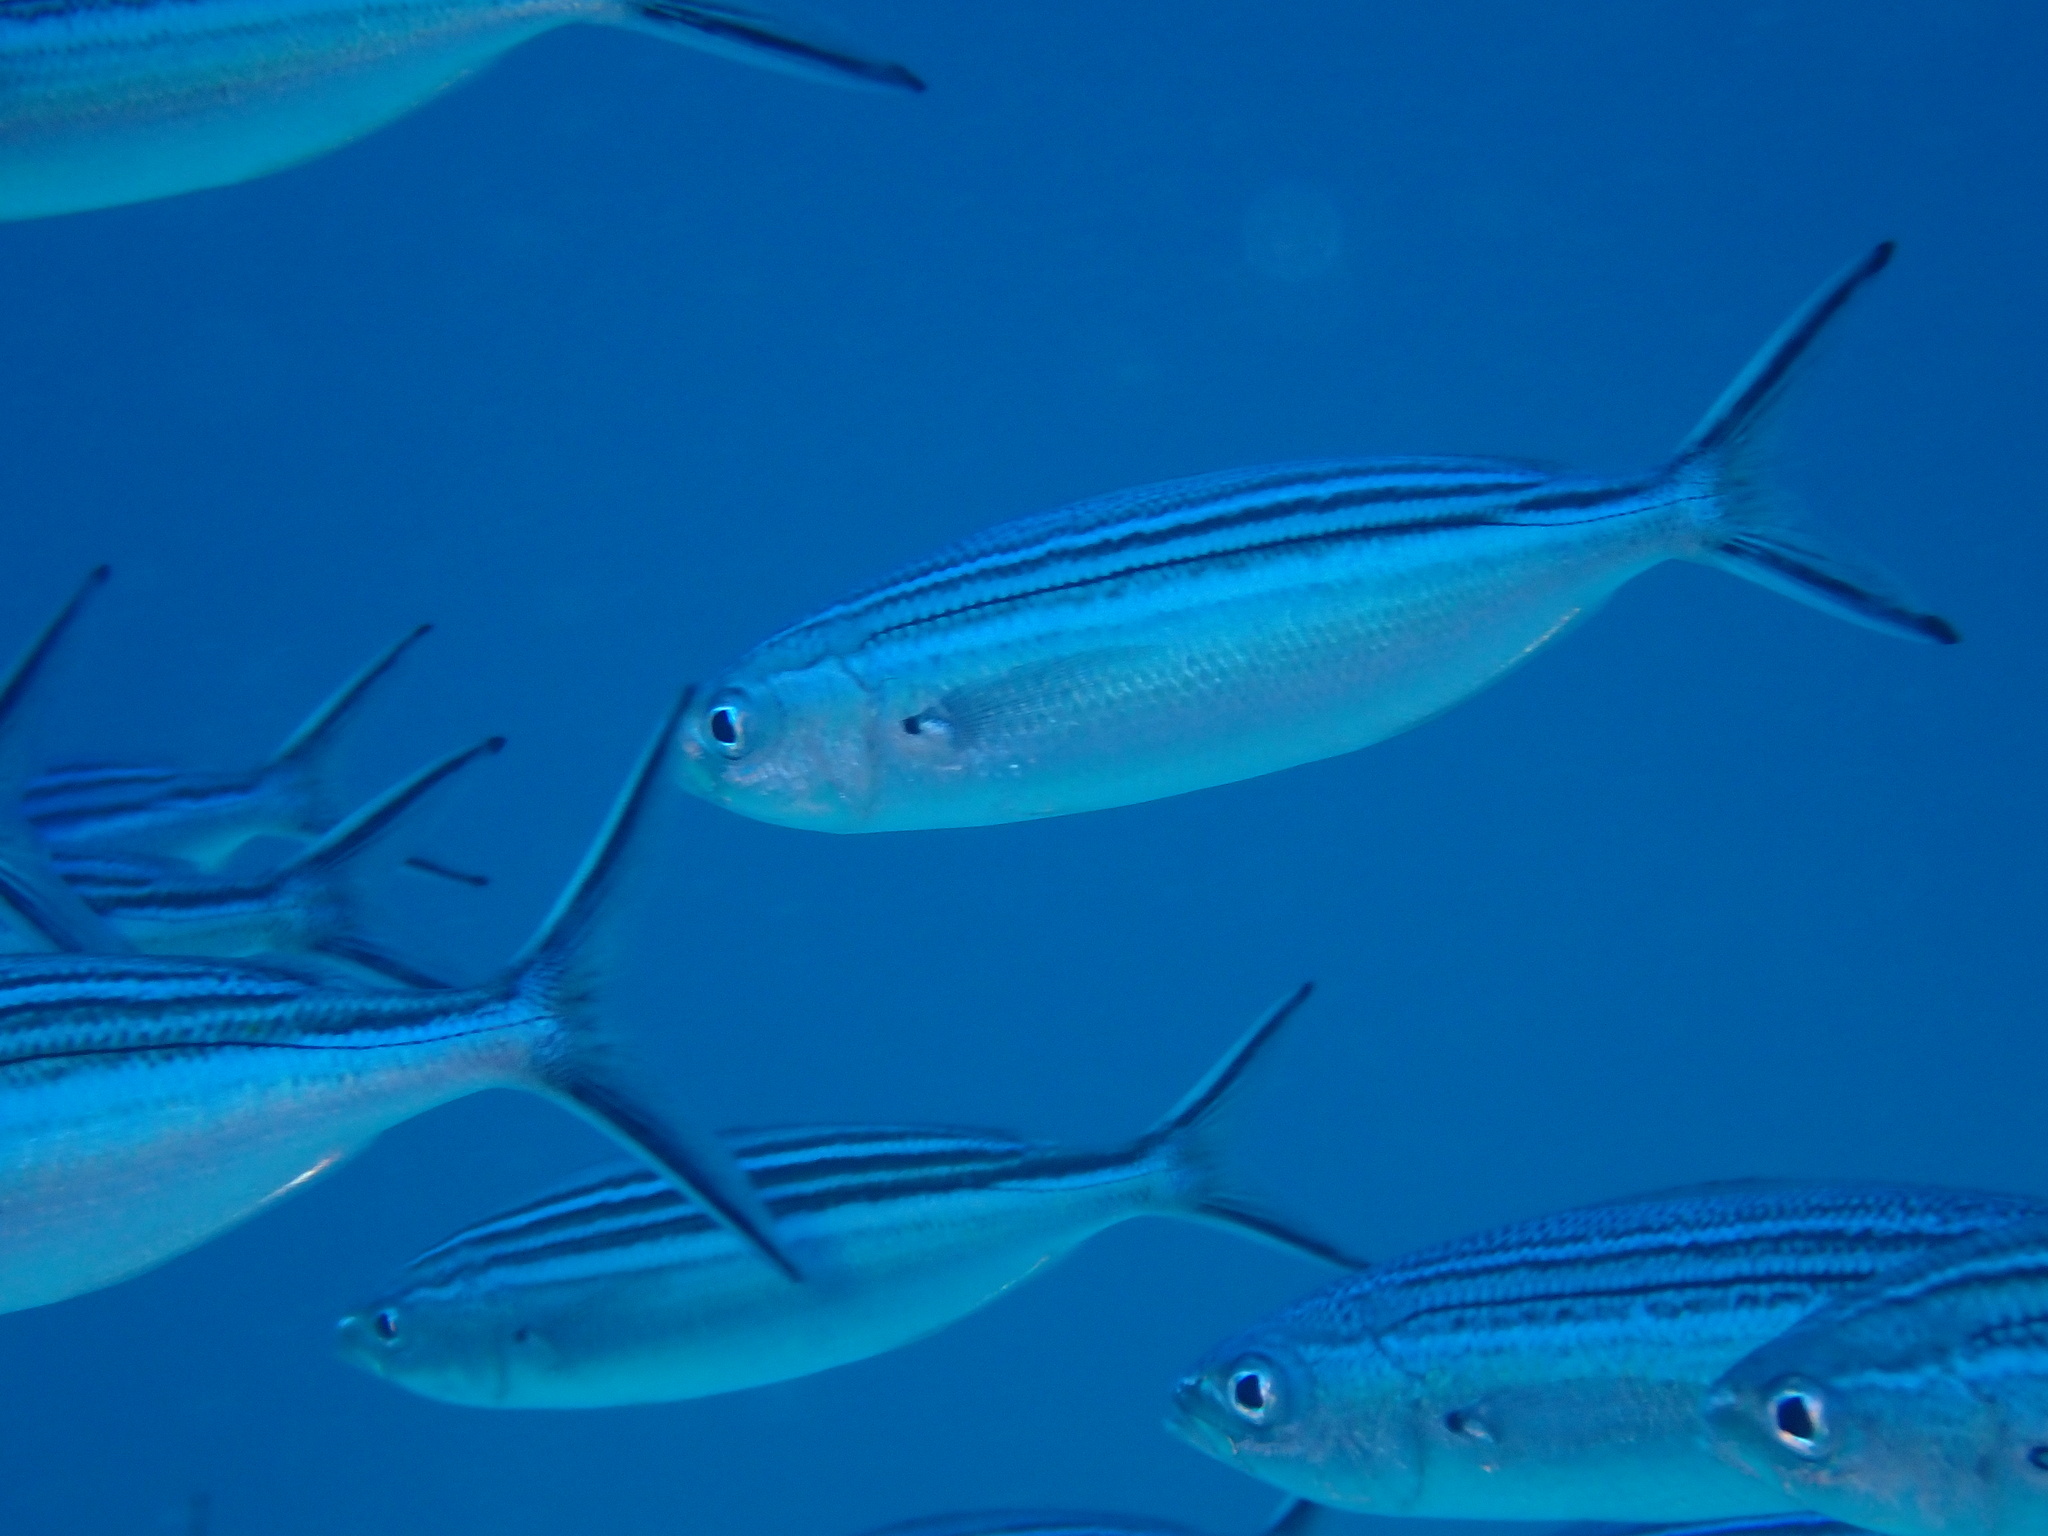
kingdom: Animalia
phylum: Chordata
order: Perciformes
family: Caesionidae
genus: Caesio
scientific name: Caesio striata
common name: Striated fusilier
